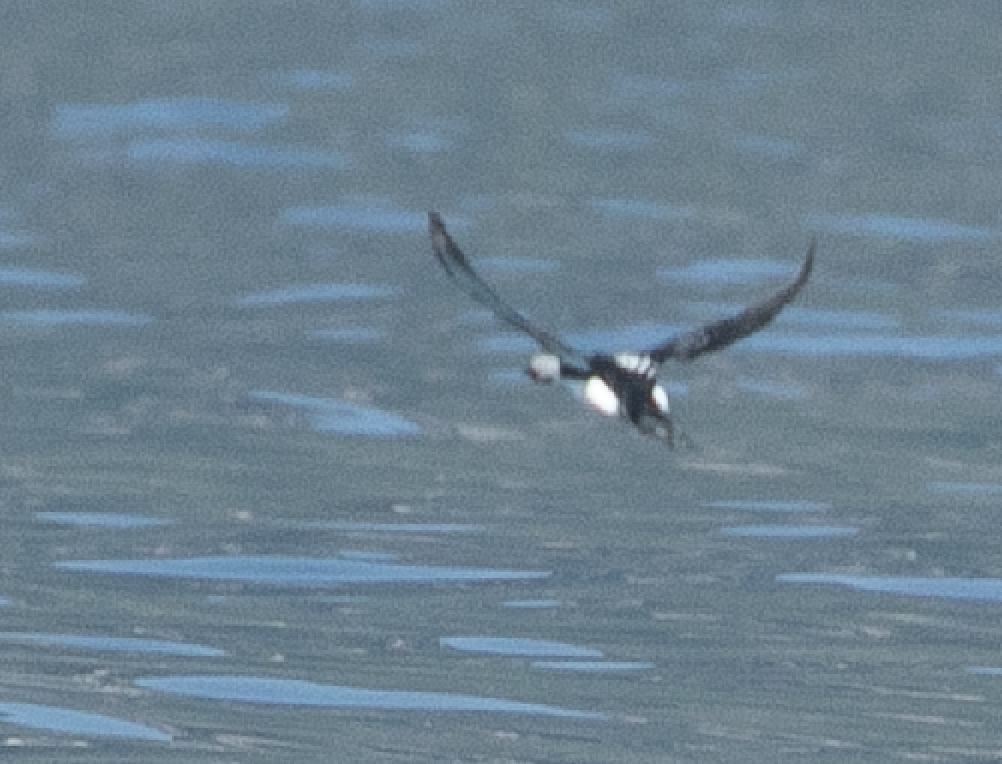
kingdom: Animalia
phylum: Chordata
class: Aves
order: Gaviiformes
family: Gaviidae
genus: Gavia
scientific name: Gavia arctica
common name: Black-throated loon
